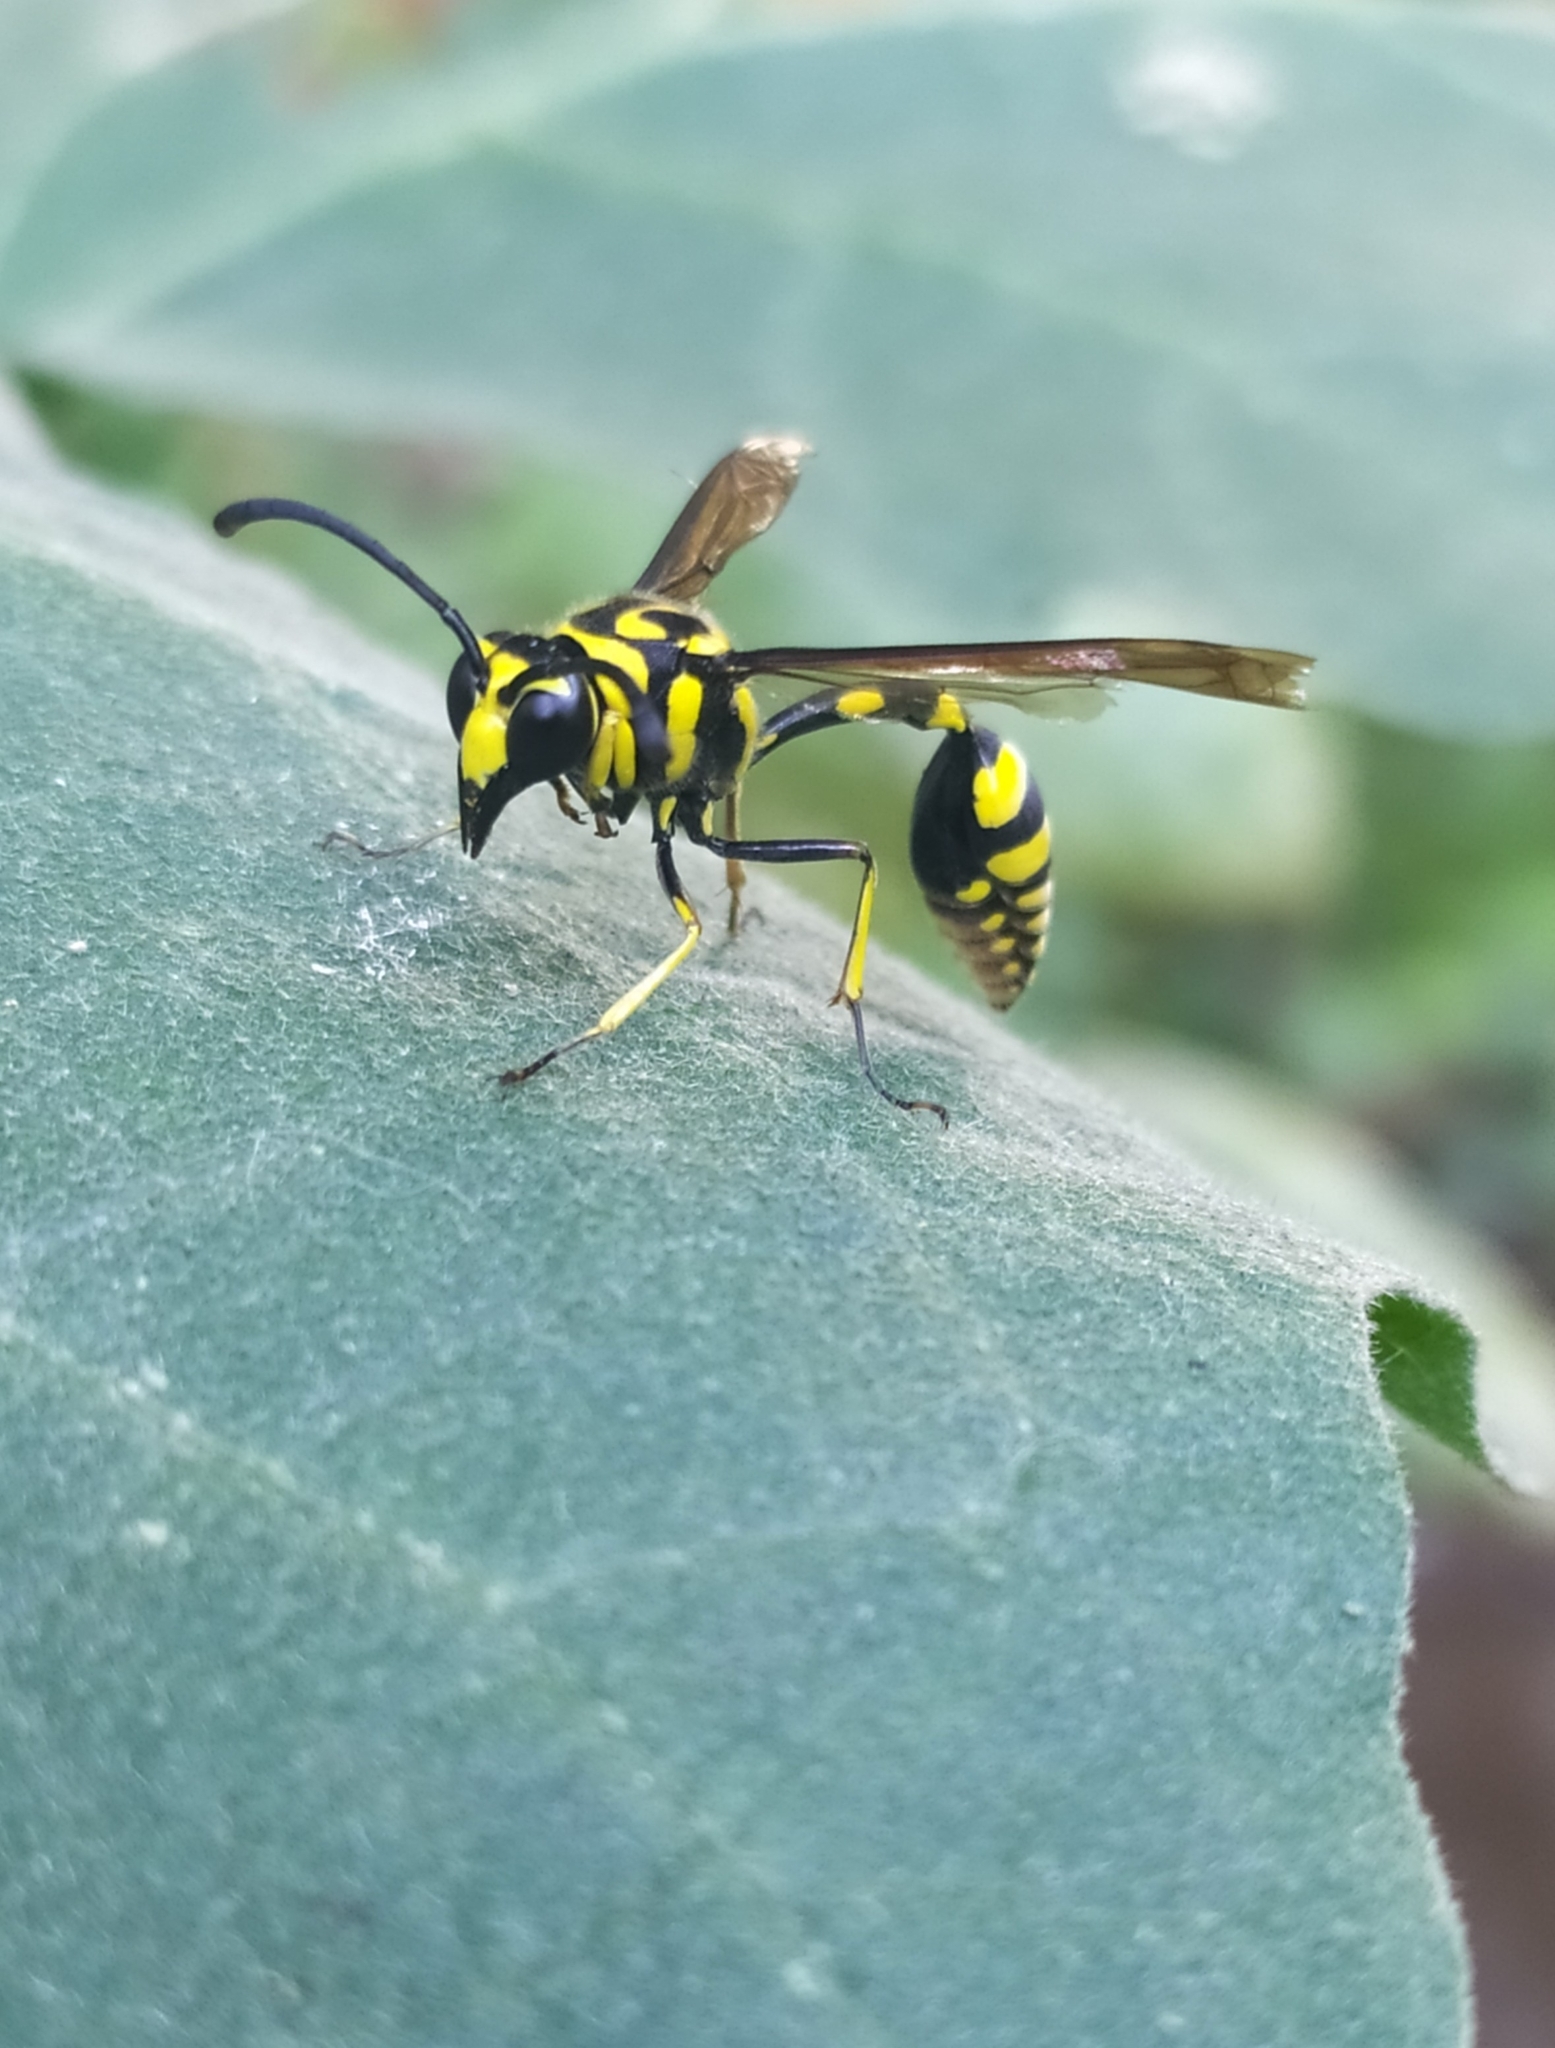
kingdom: Animalia
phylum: Arthropoda
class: Insecta
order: Hymenoptera
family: Eumenidae
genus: Phimenes
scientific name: Phimenes flavopictus
